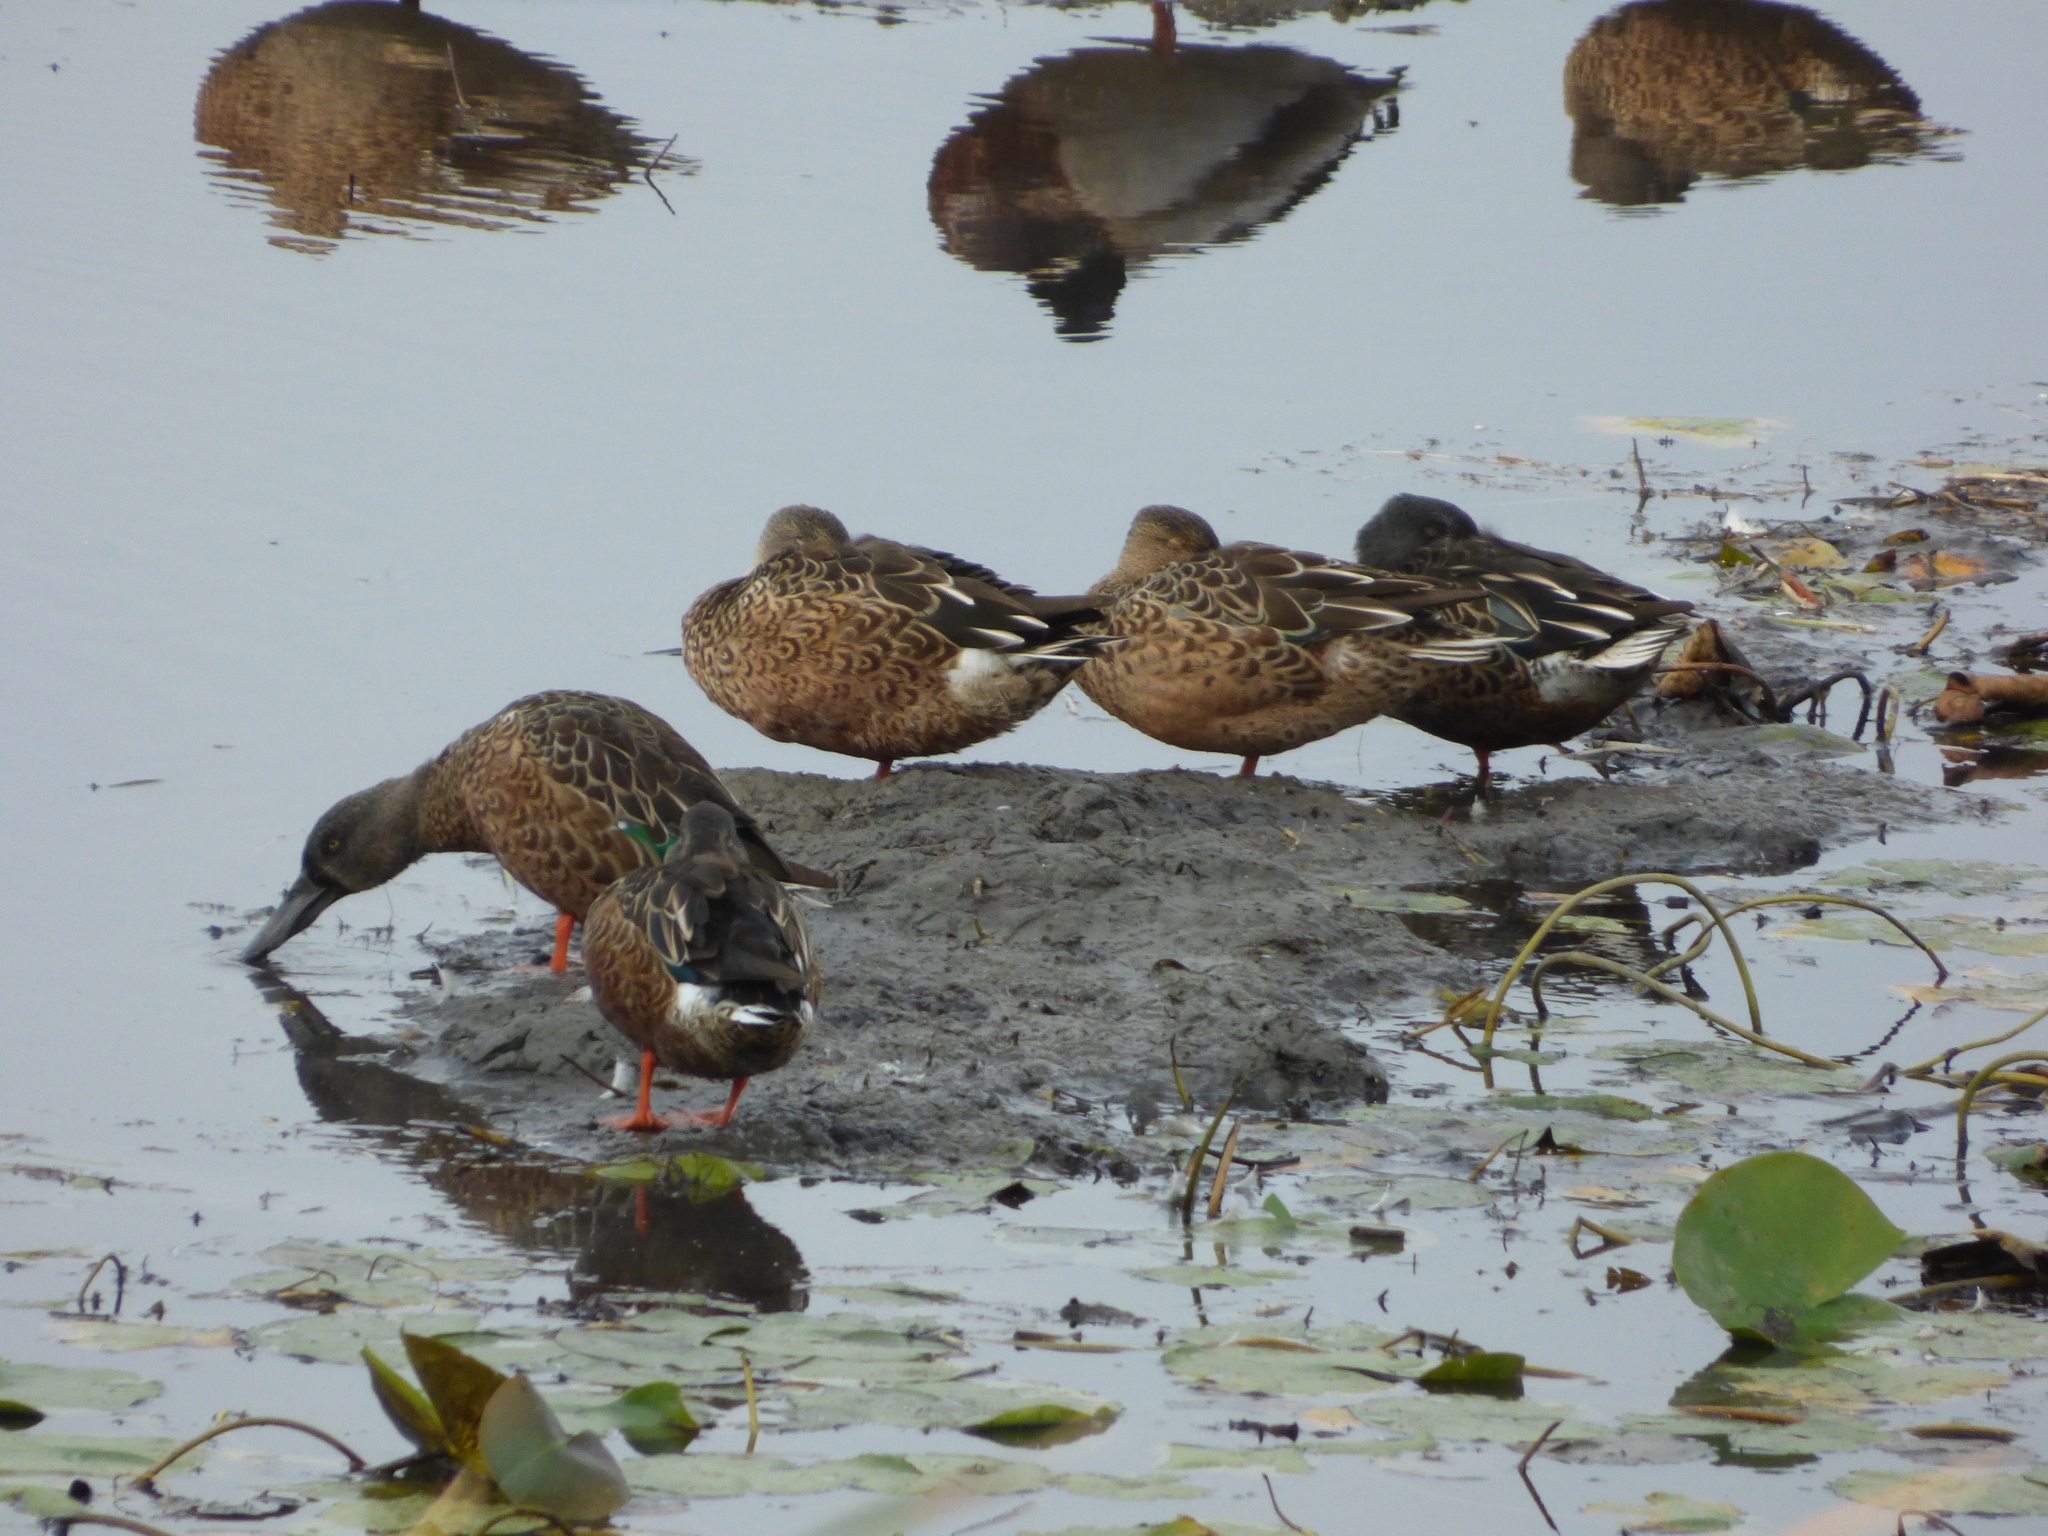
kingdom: Animalia
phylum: Chordata
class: Aves
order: Anseriformes
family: Anatidae
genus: Spatula
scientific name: Spatula clypeata
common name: Northern shoveler
